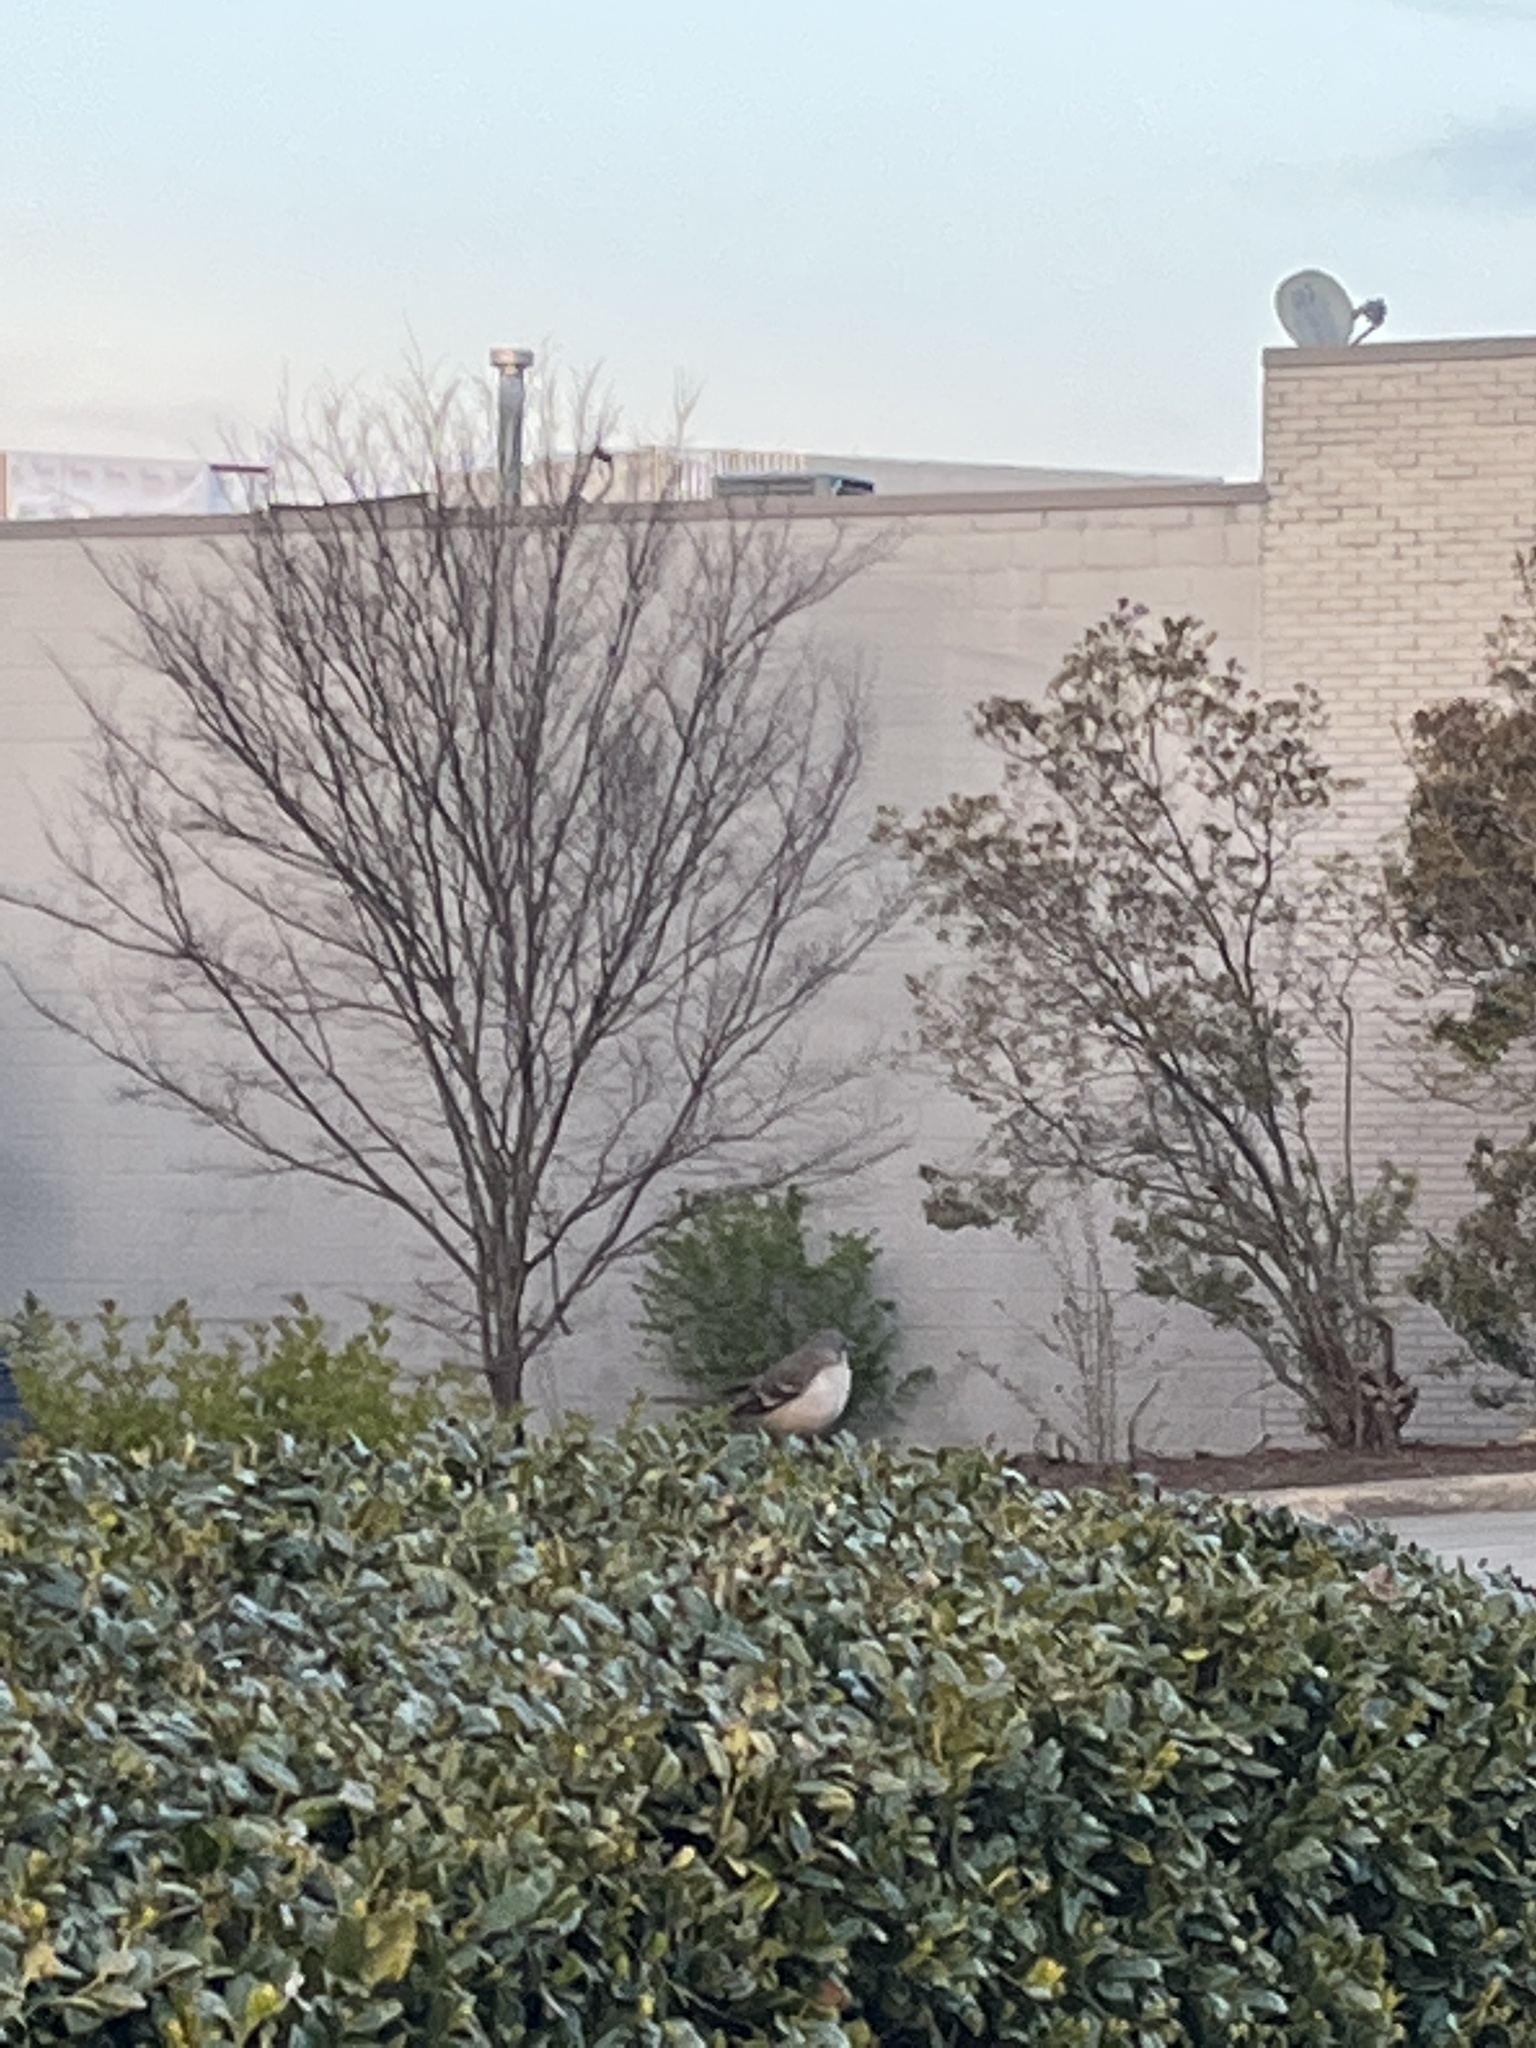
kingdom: Animalia
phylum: Chordata
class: Aves
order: Passeriformes
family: Mimidae
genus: Mimus
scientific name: Mimus polyglottos
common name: Northern mockingbird
